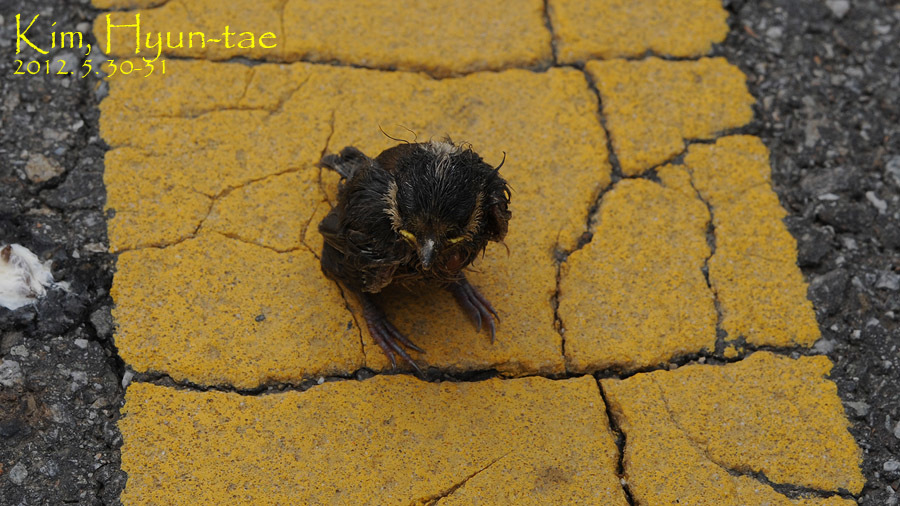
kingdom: Animalia
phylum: Chordata
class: Aves
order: Passeriformes
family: Paridae
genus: Parus
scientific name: Parus minor
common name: Japanese tit
